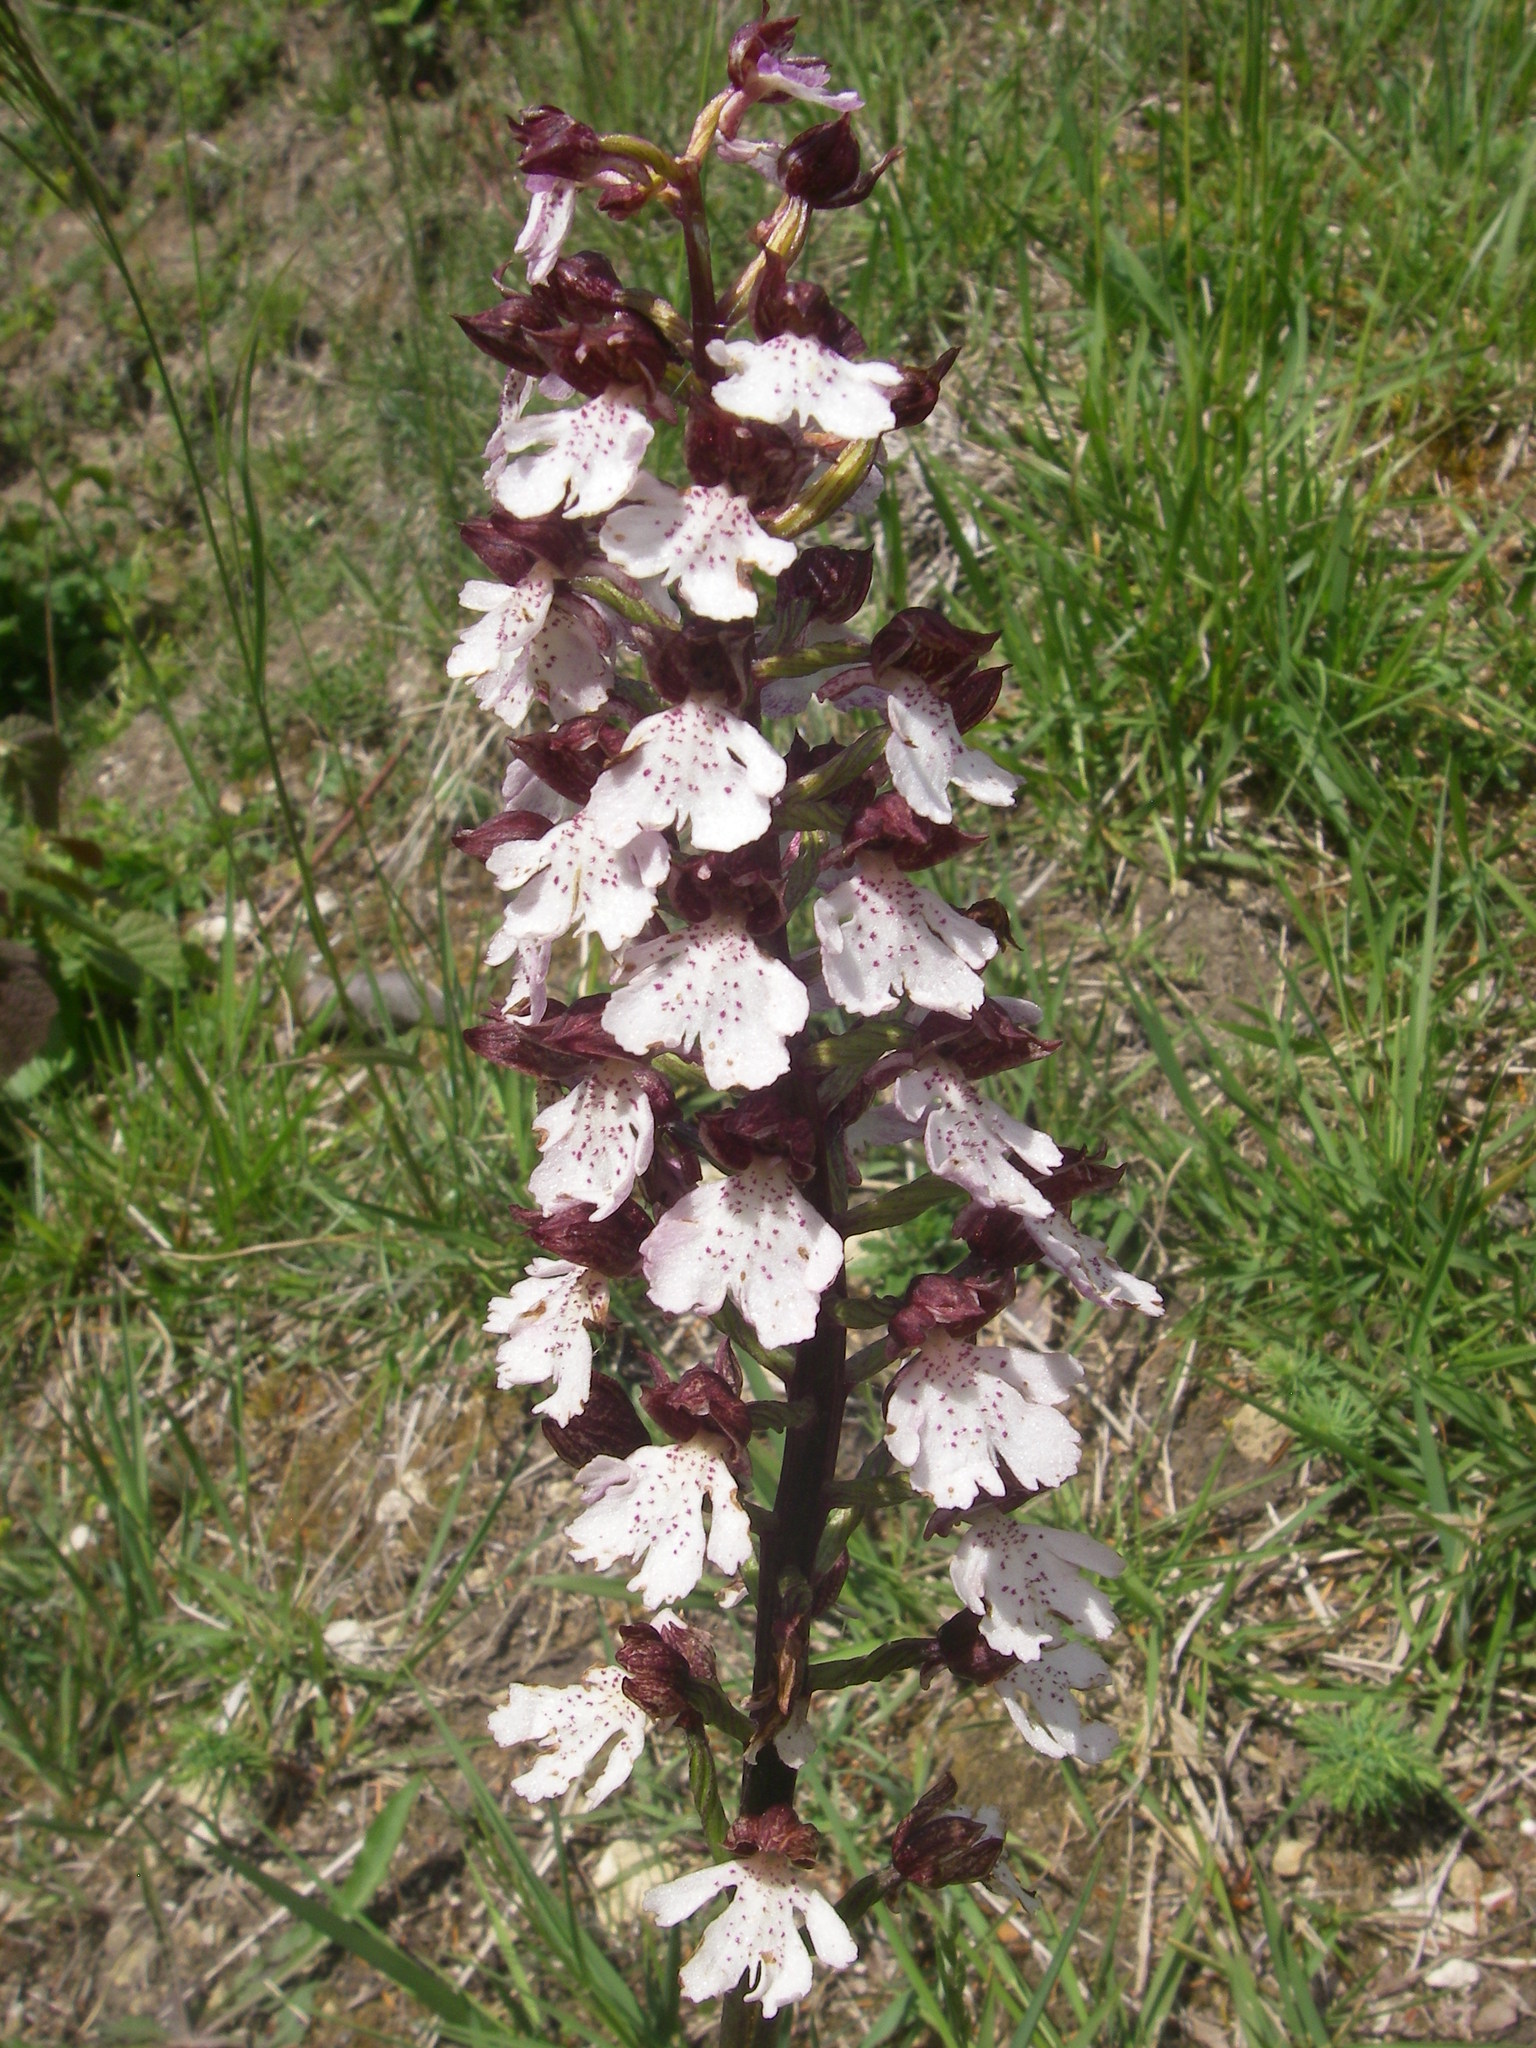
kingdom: Plantae
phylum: Tracheophyta
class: Liliopsida
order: Asparagales
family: Orchidaceae
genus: Orchis
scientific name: Orchis purpurea
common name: Lady orchid
